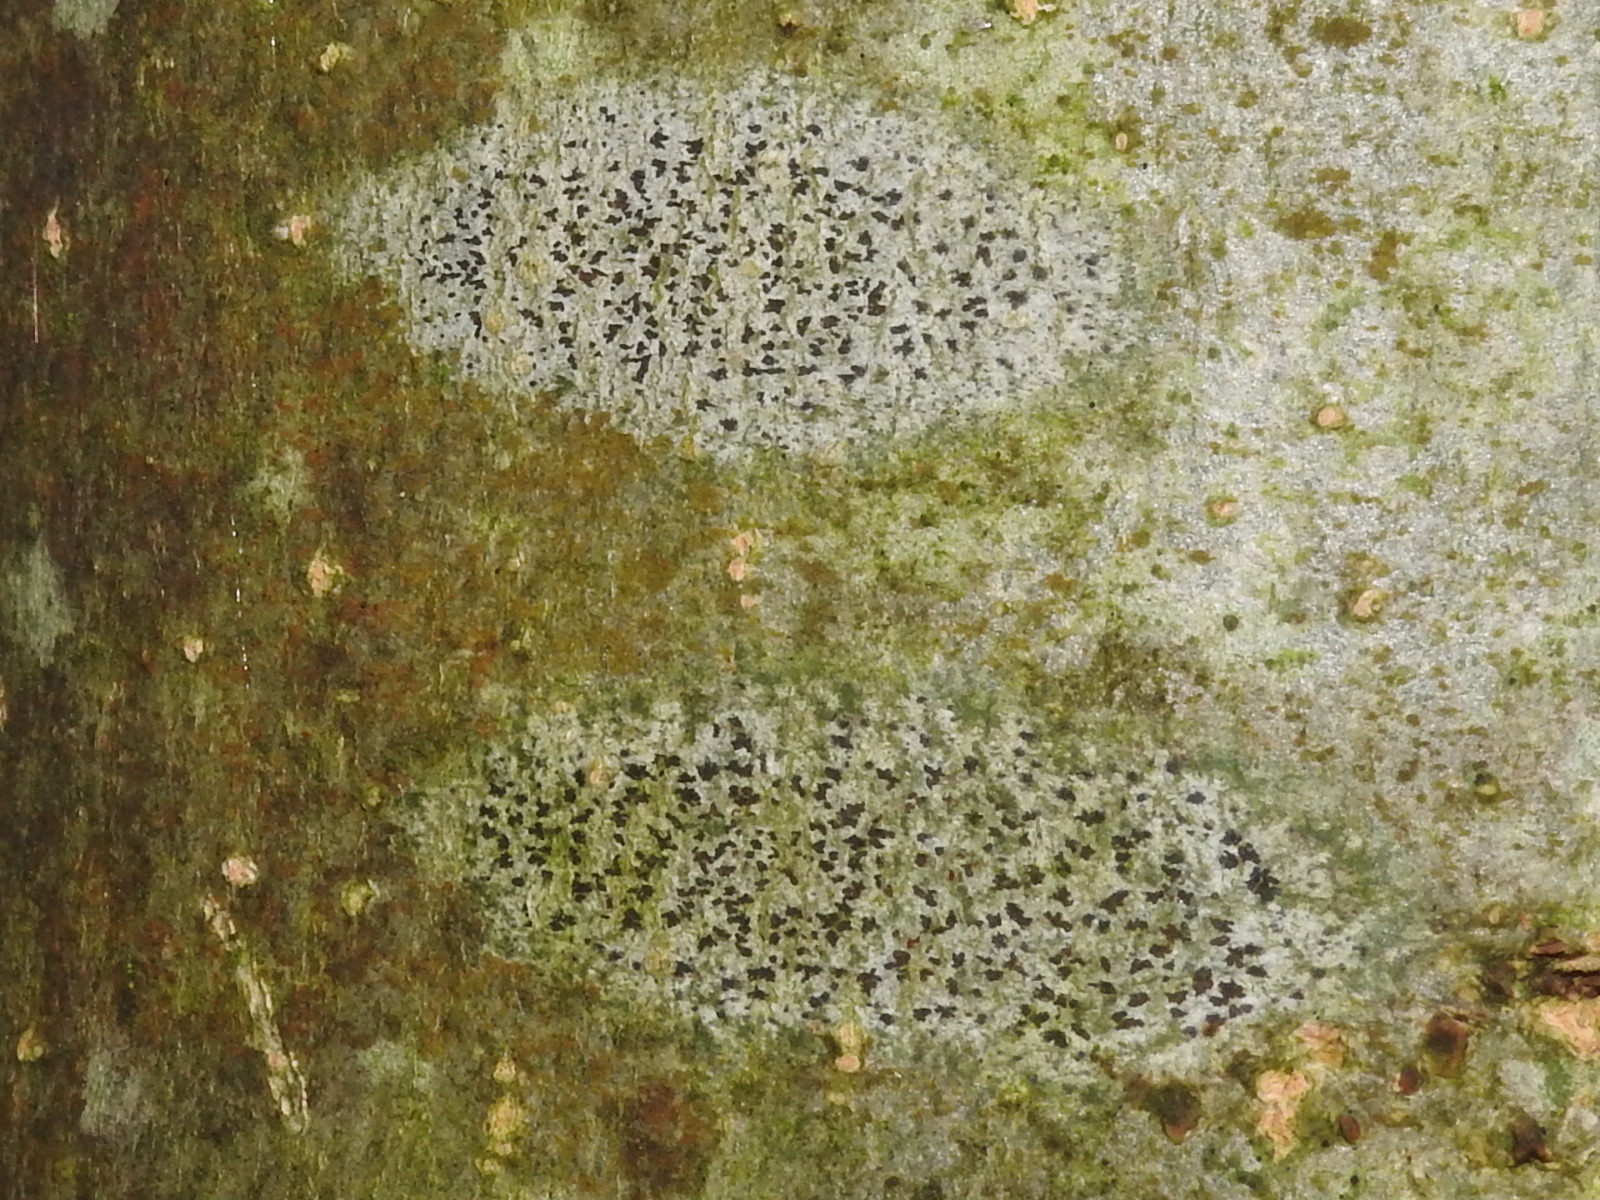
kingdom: Fungi
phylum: Ascomycota
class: Arthoniomycetes
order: Arthoniales
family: Arthoniaceae
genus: Arthonia
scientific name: Arthonia radiata
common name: Asterisk lichen
